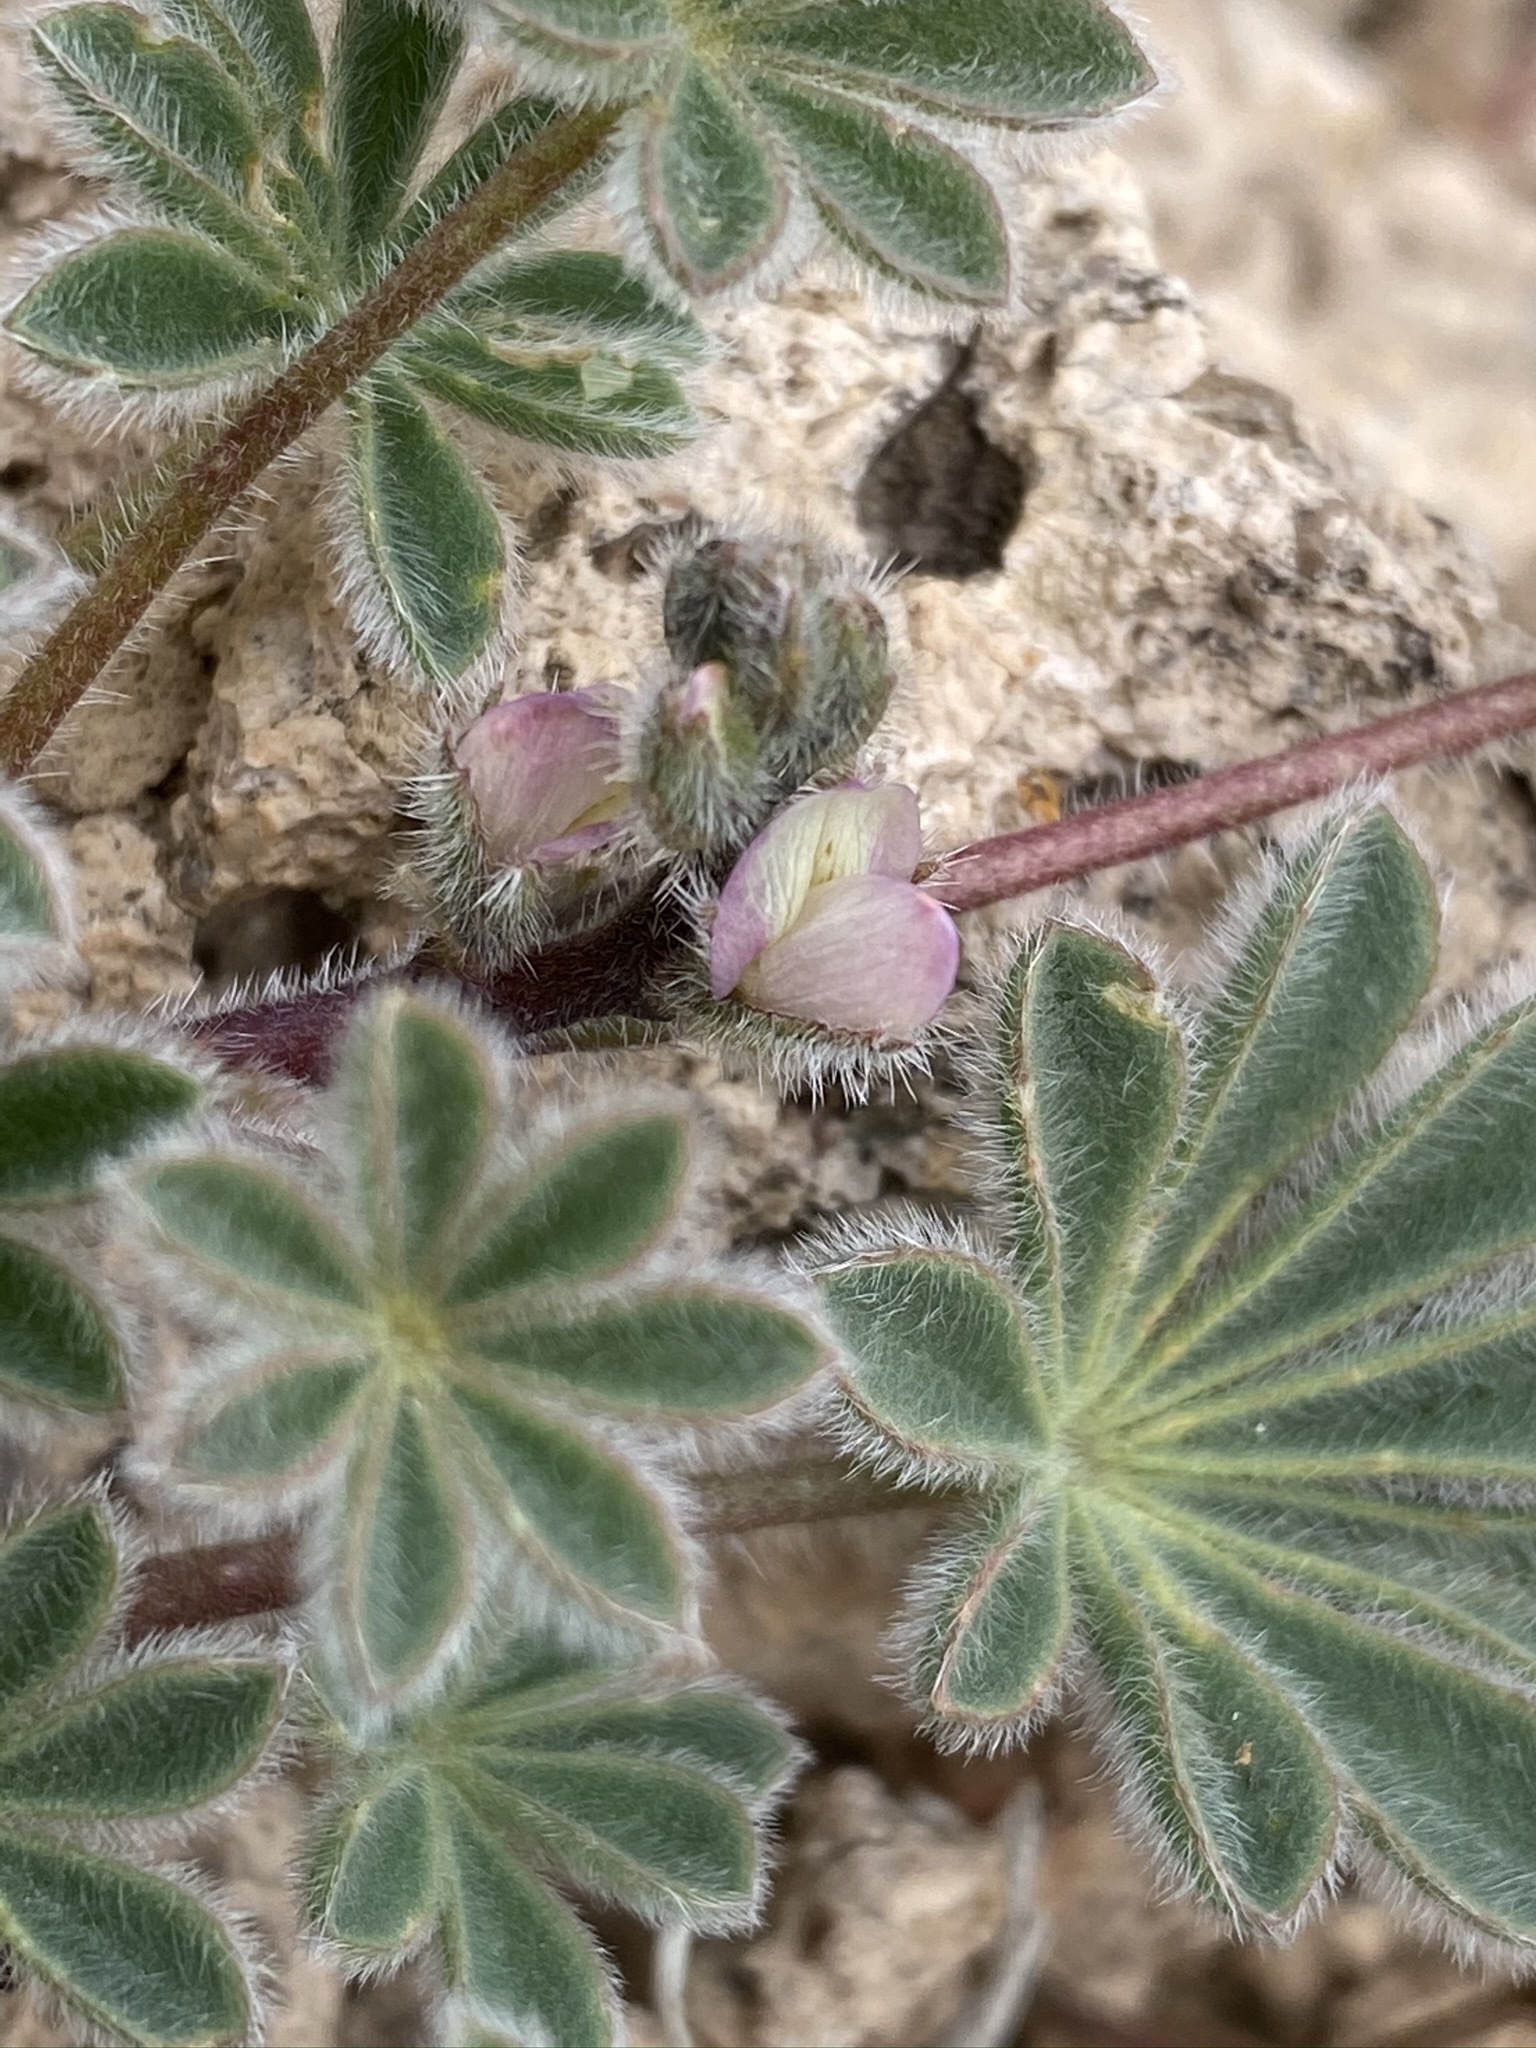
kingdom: Plantae
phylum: Tracheophyta
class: Magnoliopsida
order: Fabales
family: Fabaceae
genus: Lupinus
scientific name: Lupinus concinnus
